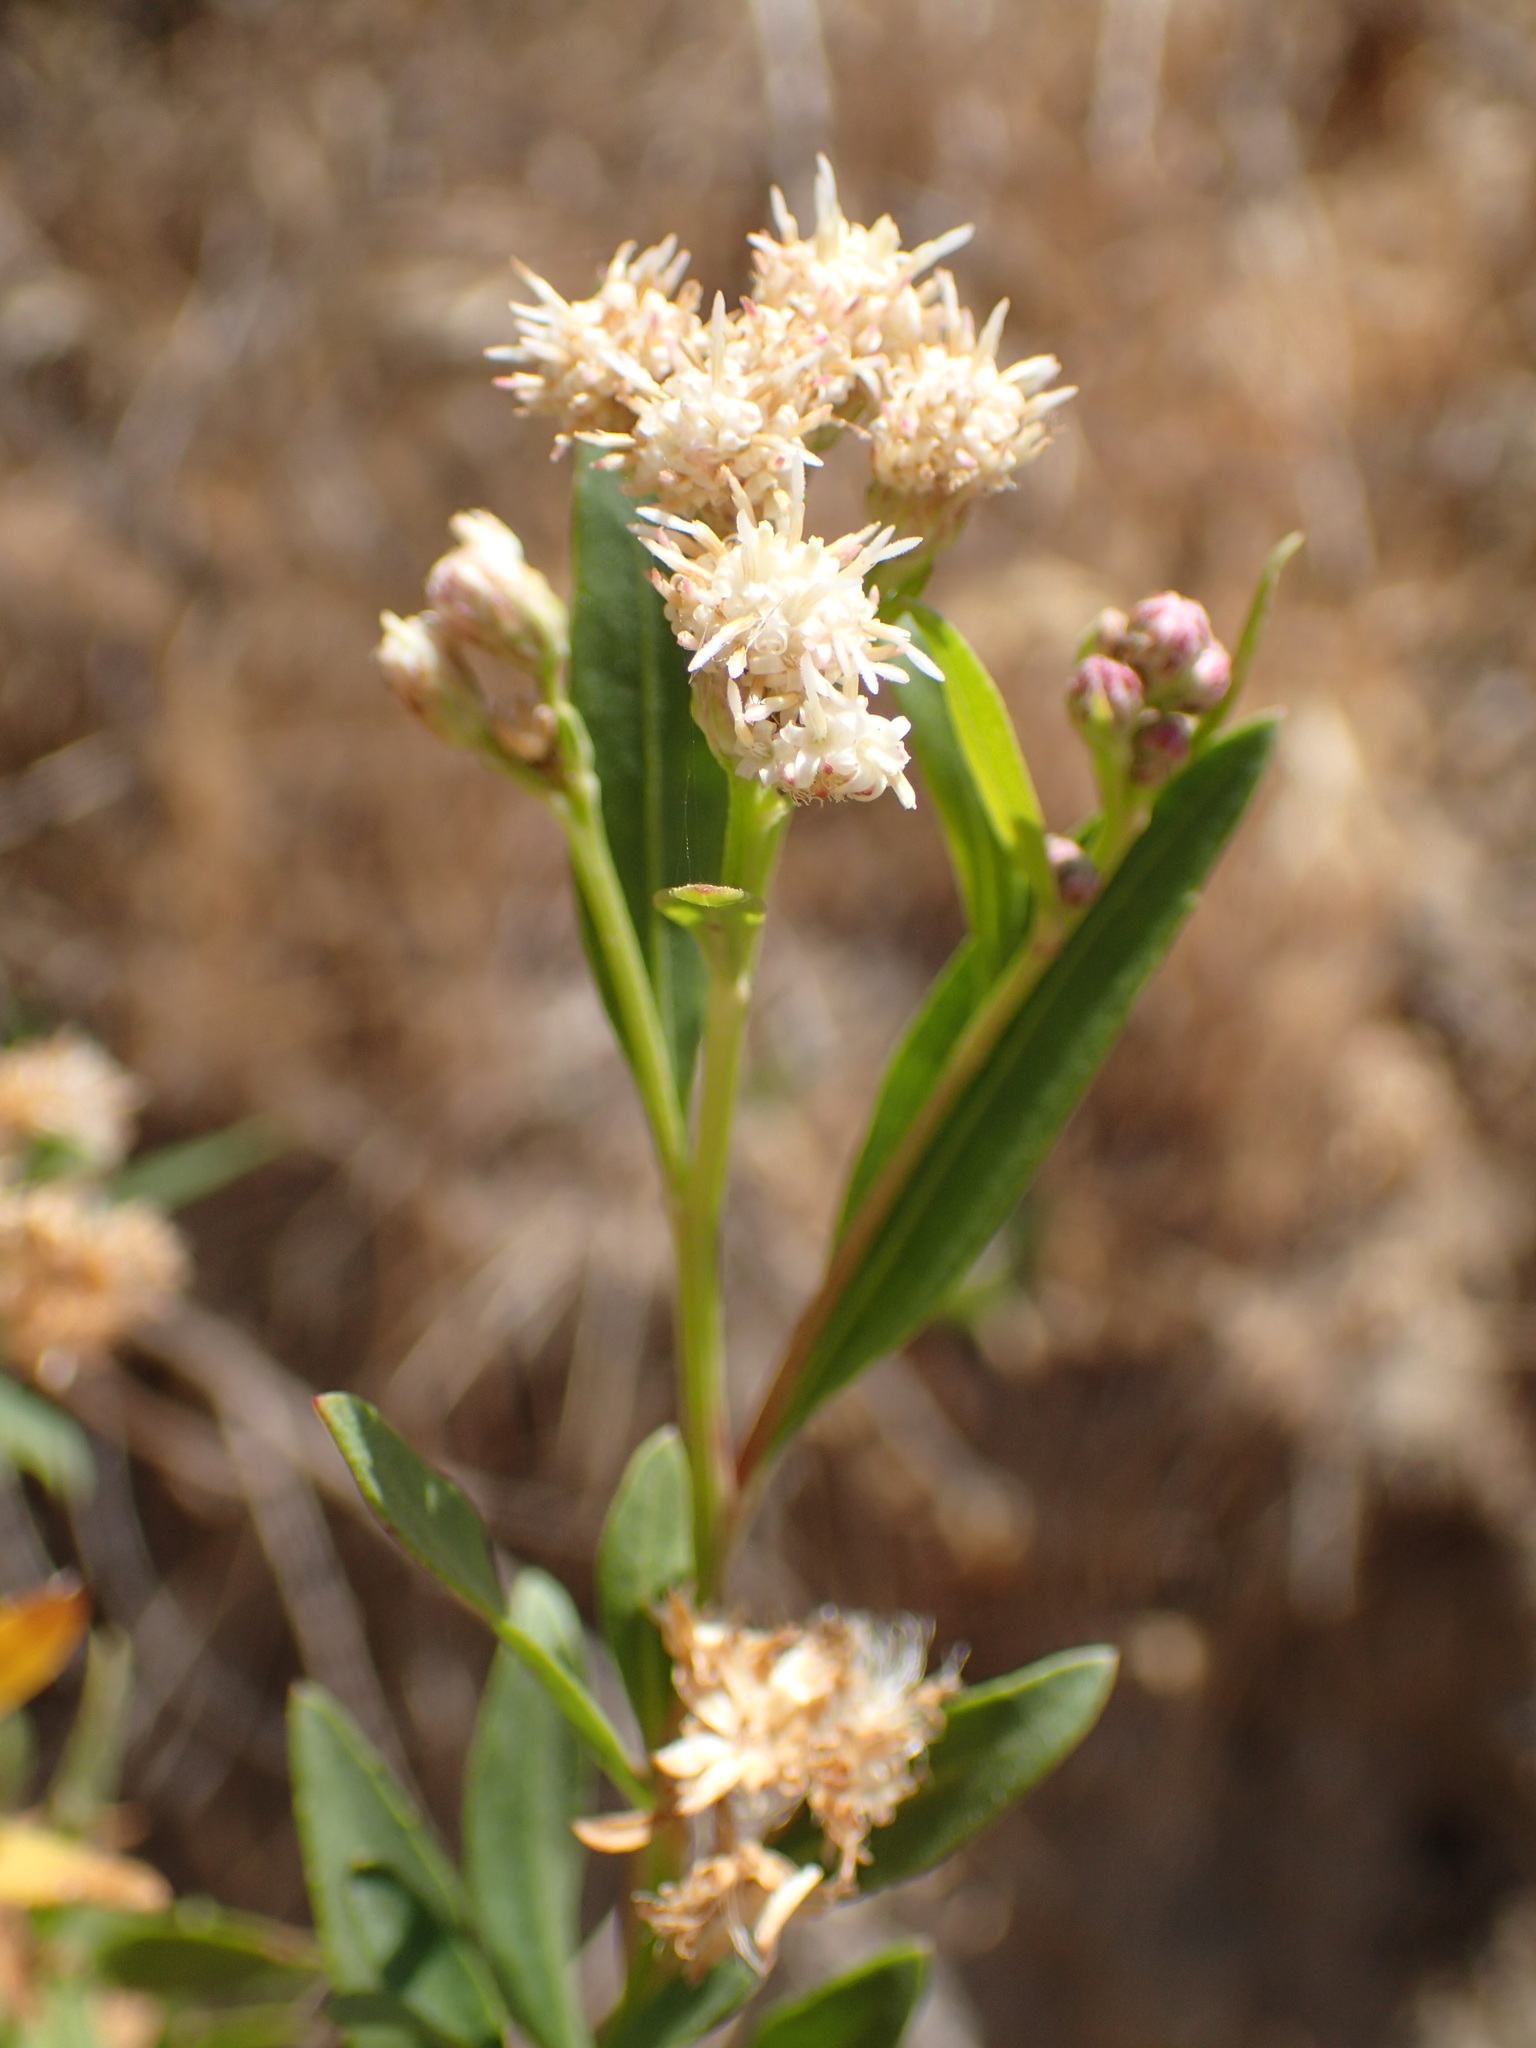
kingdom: Plantae
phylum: Tracheophyta
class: Magnoliopsida
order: Asterales
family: Asteraceae
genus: Baccharis
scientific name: Baccharis salicifolia
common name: Sticky baccharis
